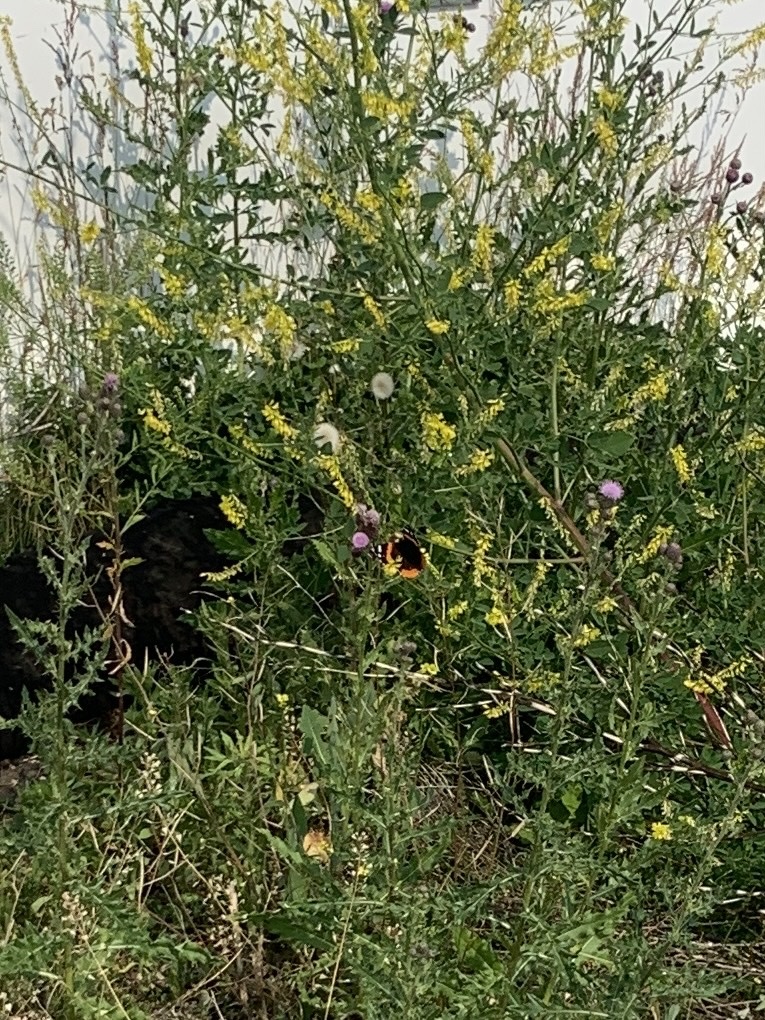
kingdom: Animalia
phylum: Arthropoda
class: Insecta
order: Lepidoptera
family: Nymphalidae
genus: Vanessa
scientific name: Vanessa atalanta
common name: Red admiral
